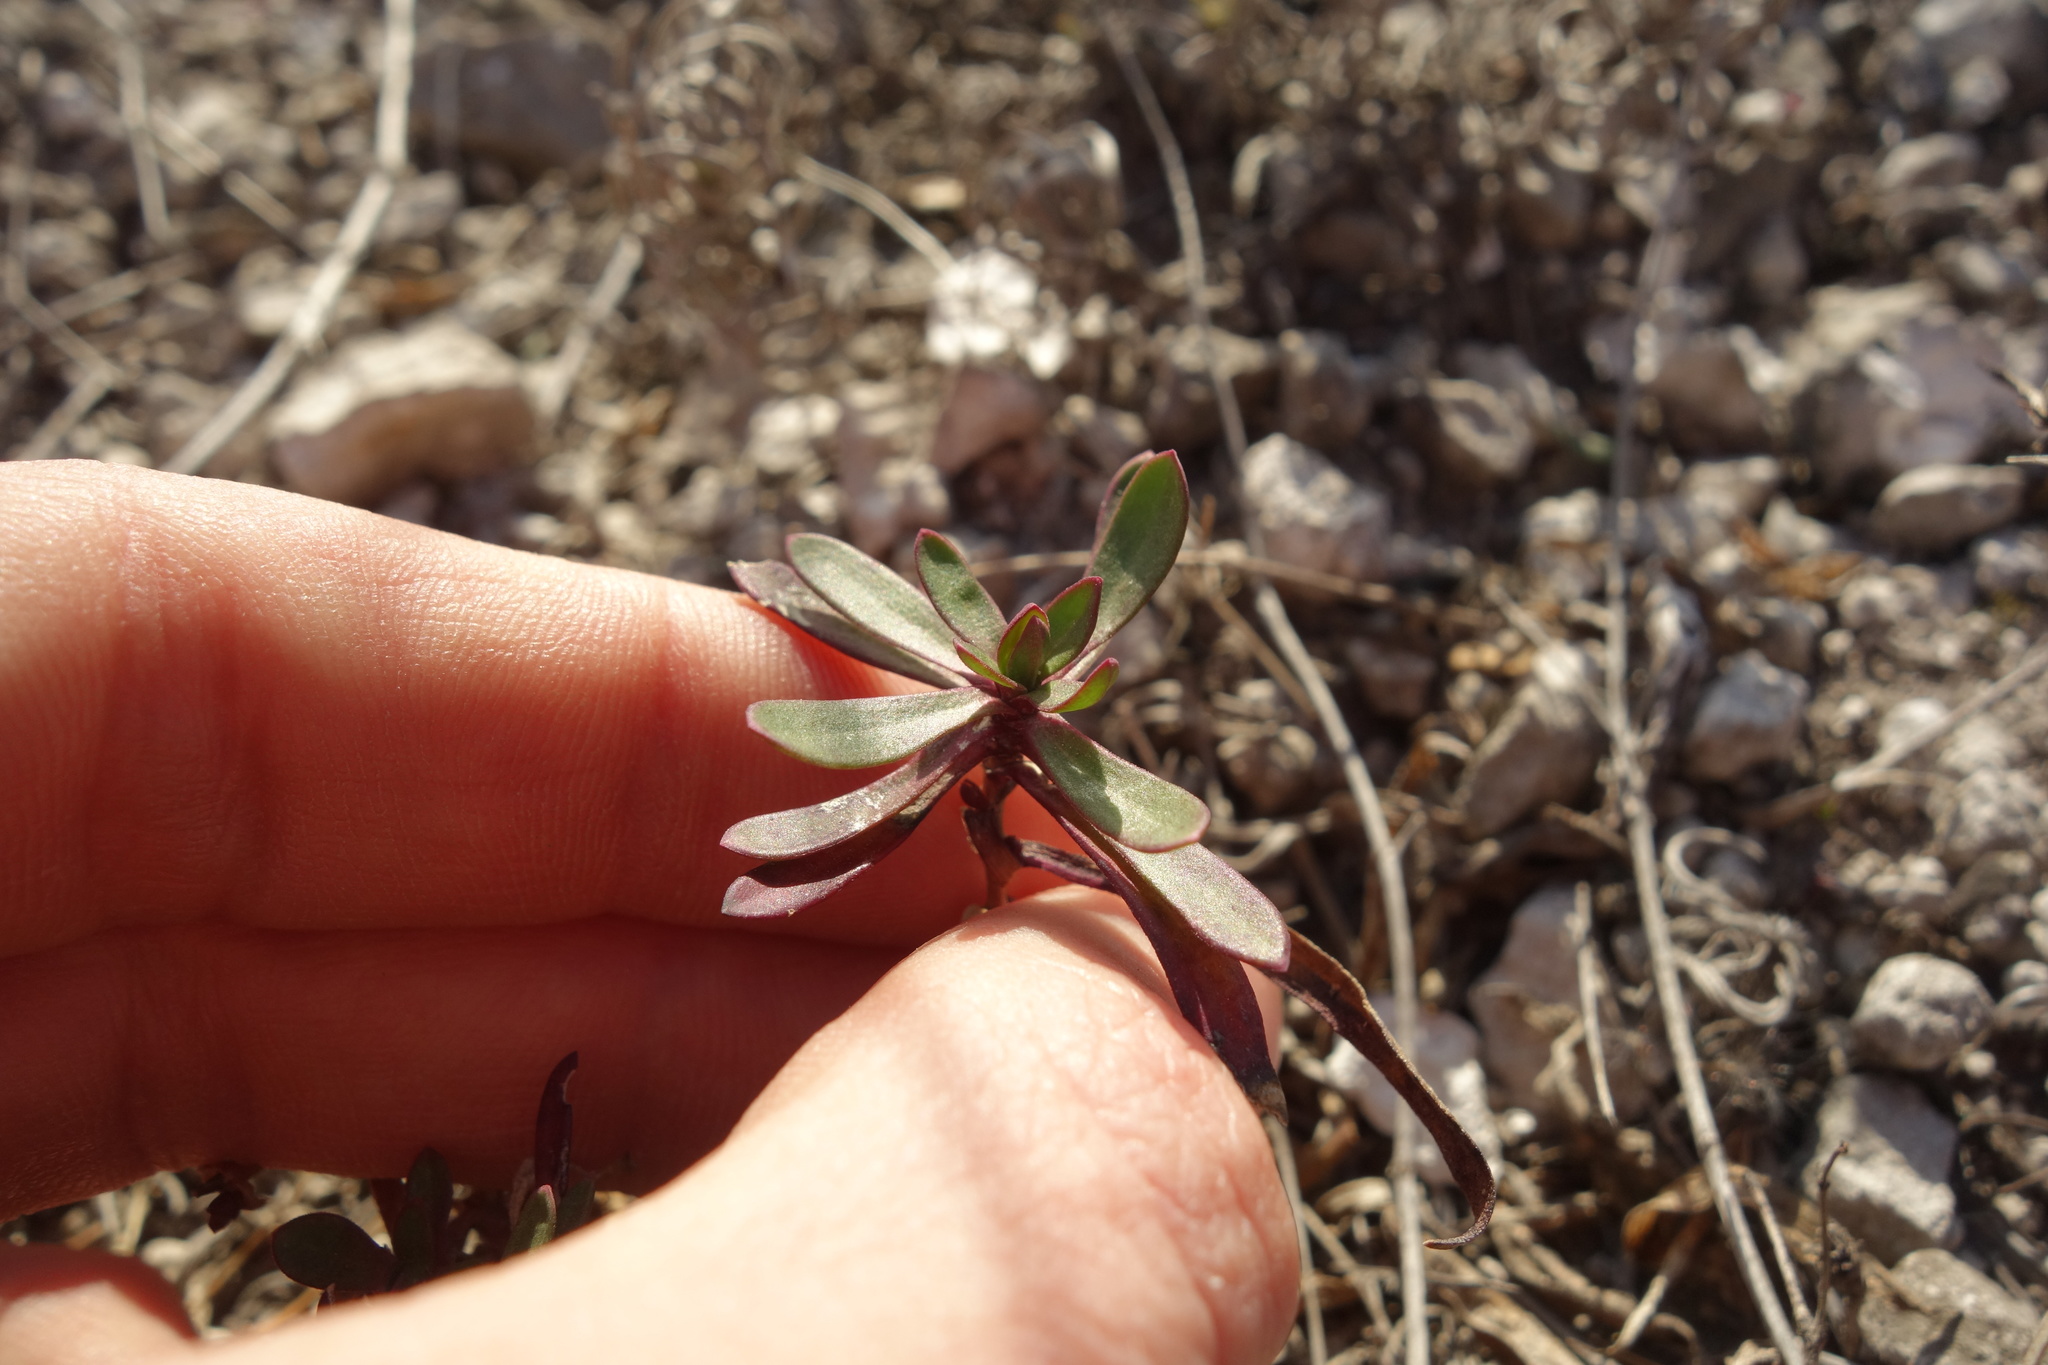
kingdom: Plantae
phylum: Tracheophyta
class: Magnoliopsida
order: Caryophyllales
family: Caryophyllaceae
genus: Gypsophila
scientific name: Gypsophila altissima
